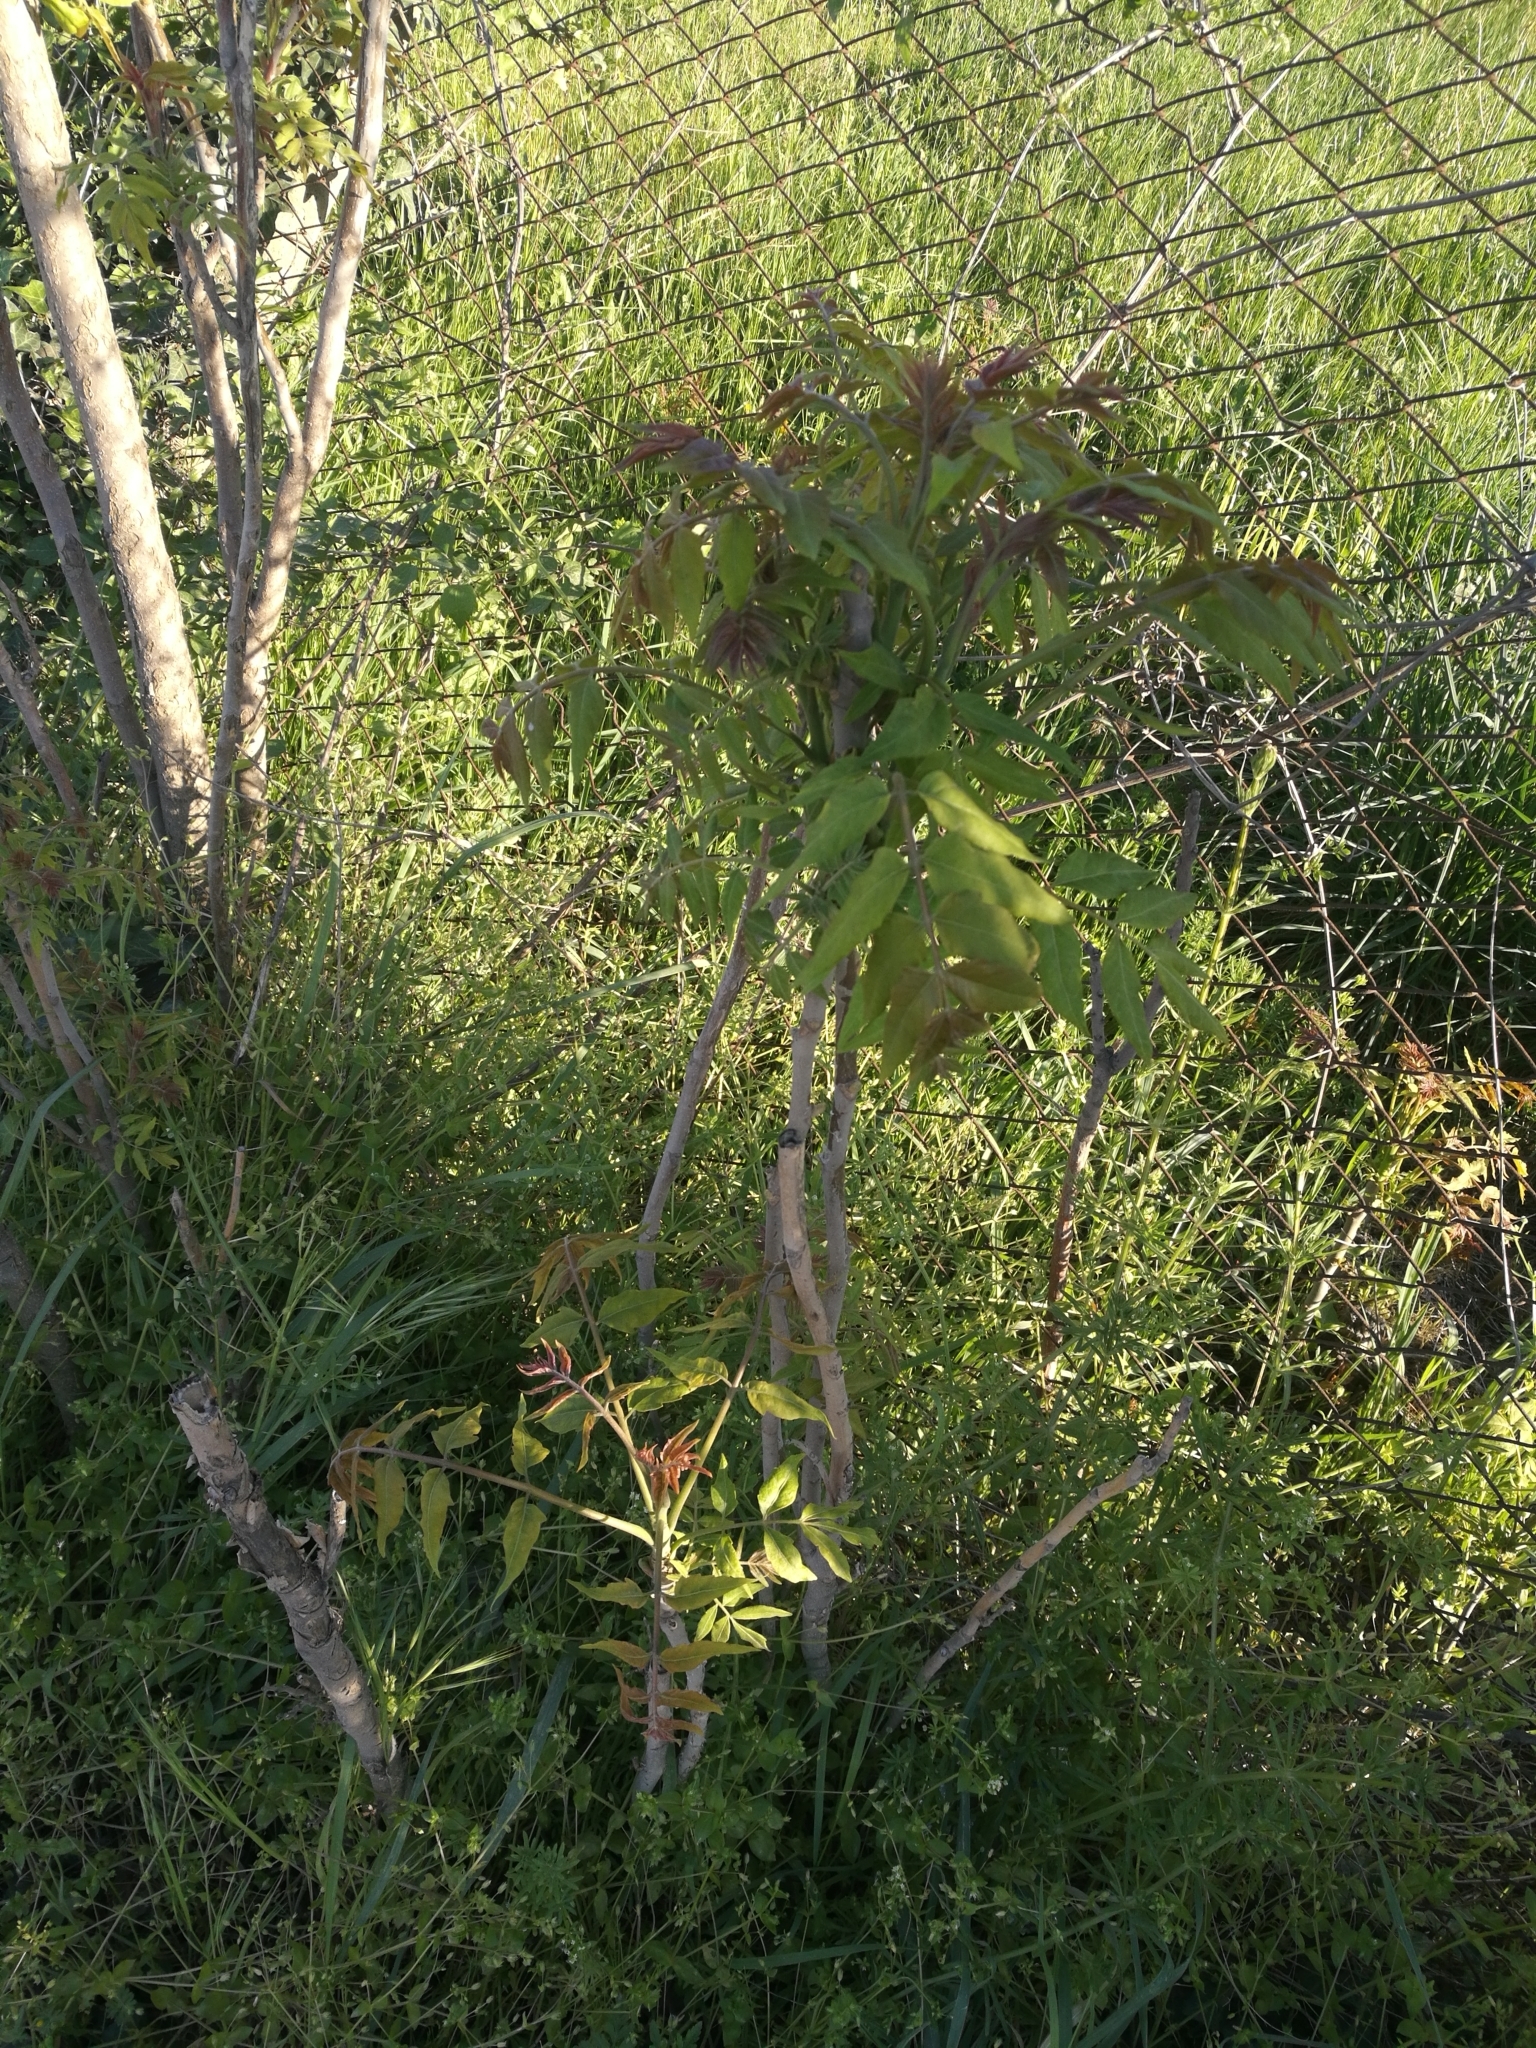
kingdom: Plantae
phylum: Tracheophyta
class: Magnoliopsida
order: Sapindales
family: Simaroubaceae
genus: Ailanthus
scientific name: Ailanthus altissima
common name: Tree-of-heaven
